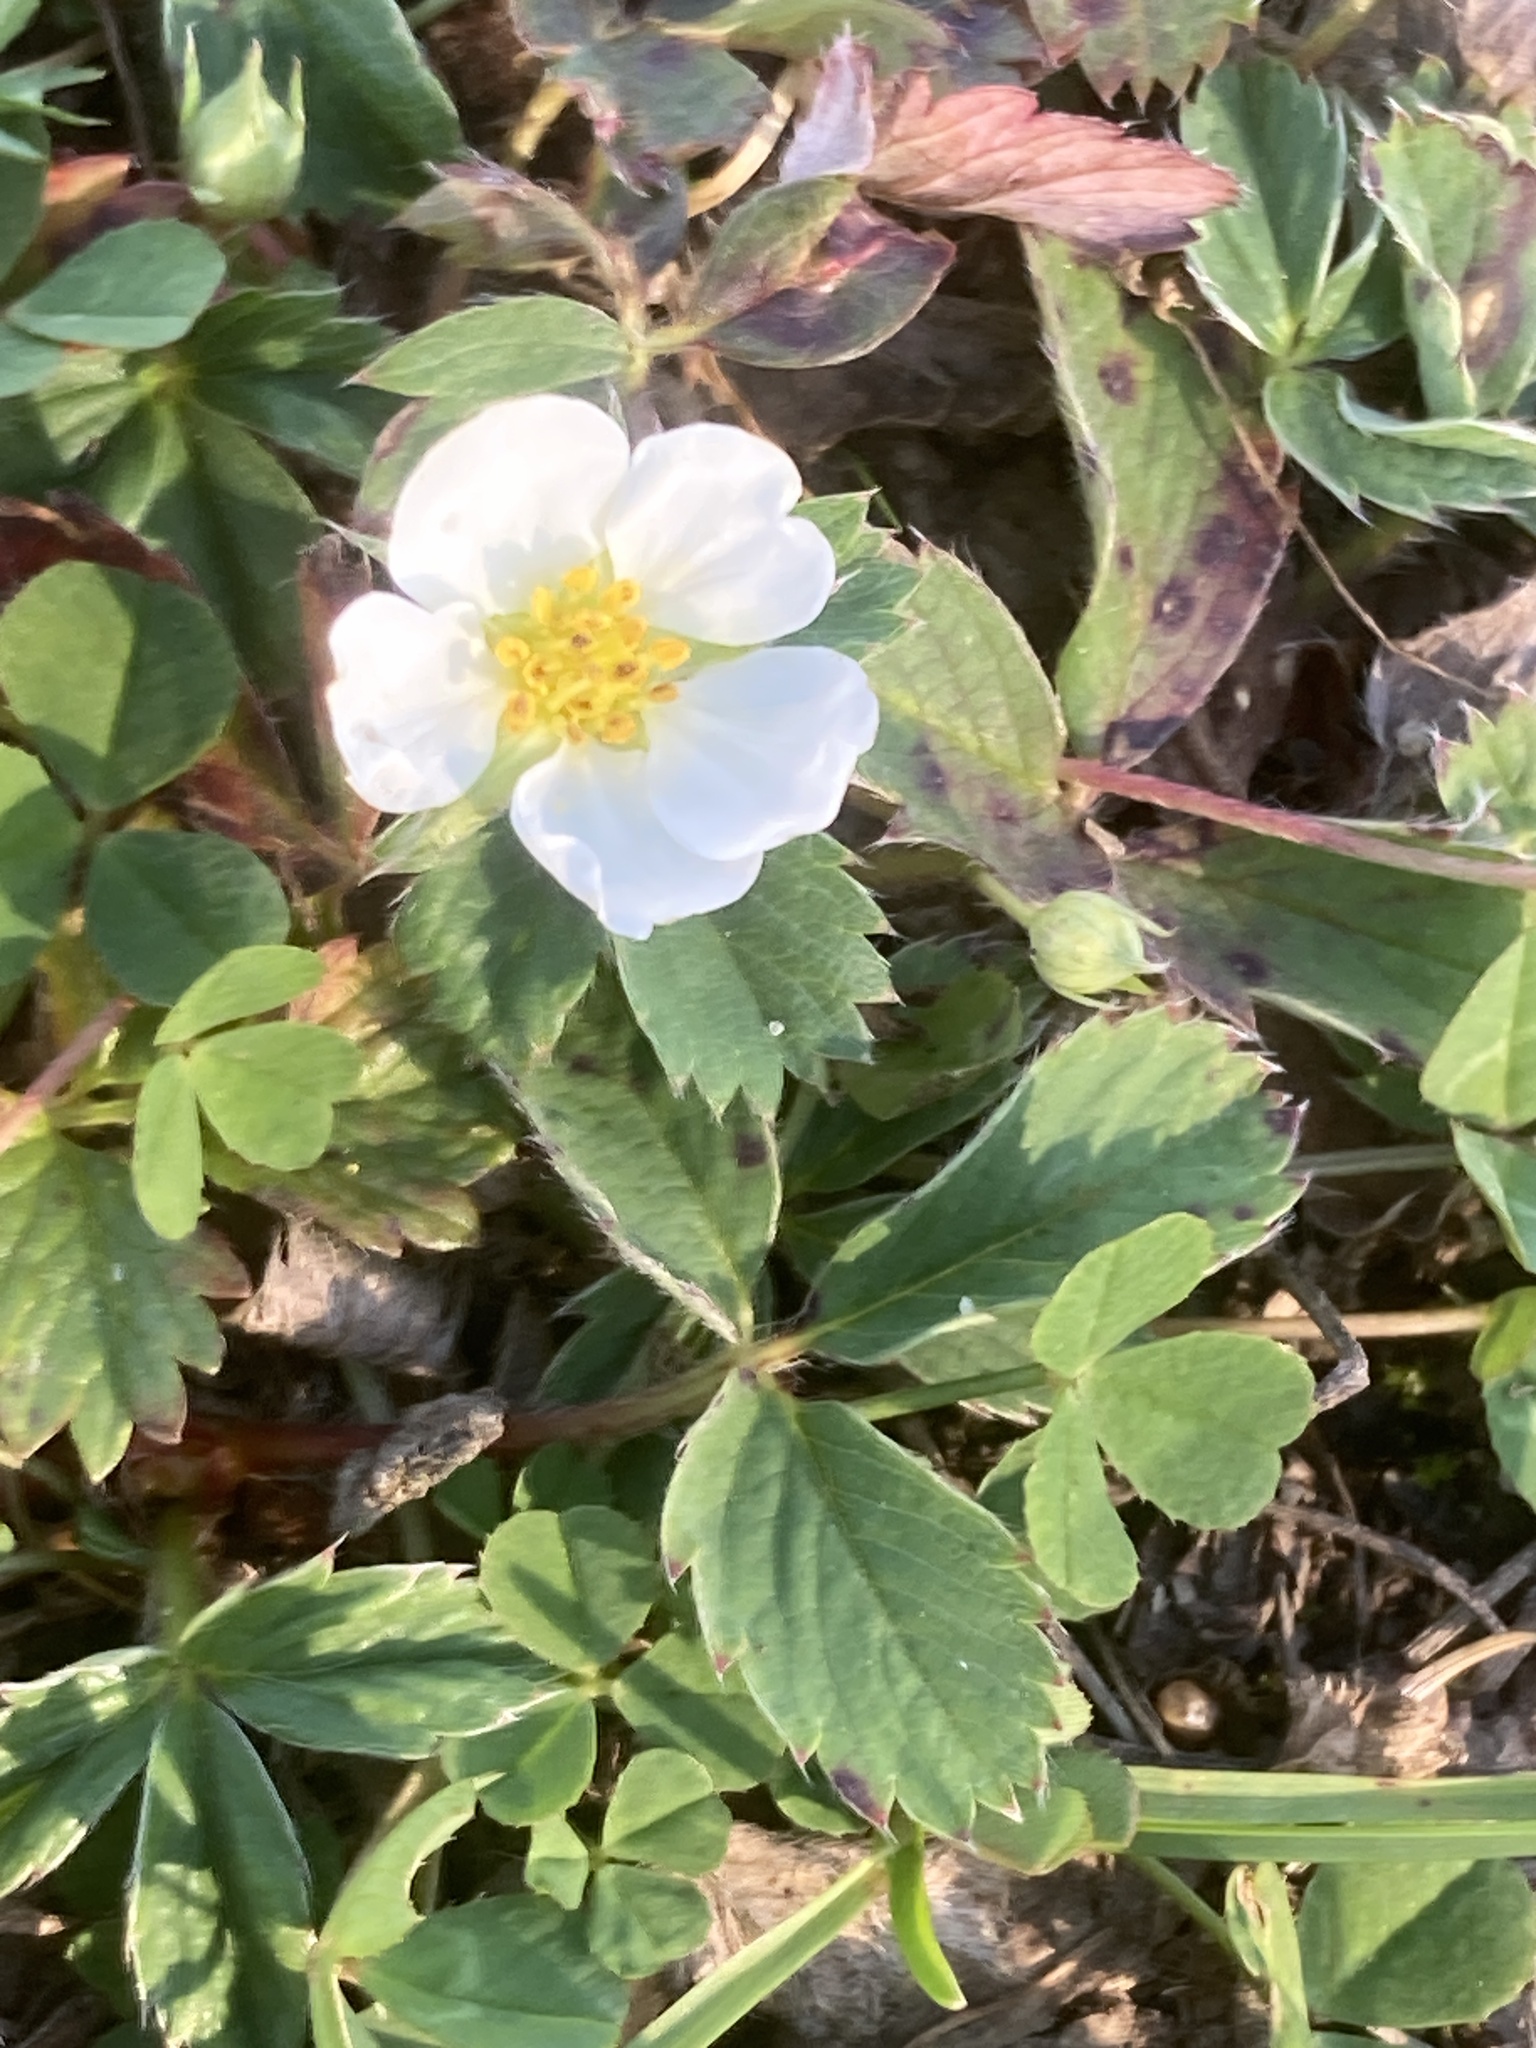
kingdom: Plantae
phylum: Tracheophyta
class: Magnoliopsida
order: Rosales
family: Rosaceae
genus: Fragaria
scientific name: Fragaria virginiana
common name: Thickleaved wild strawberry
